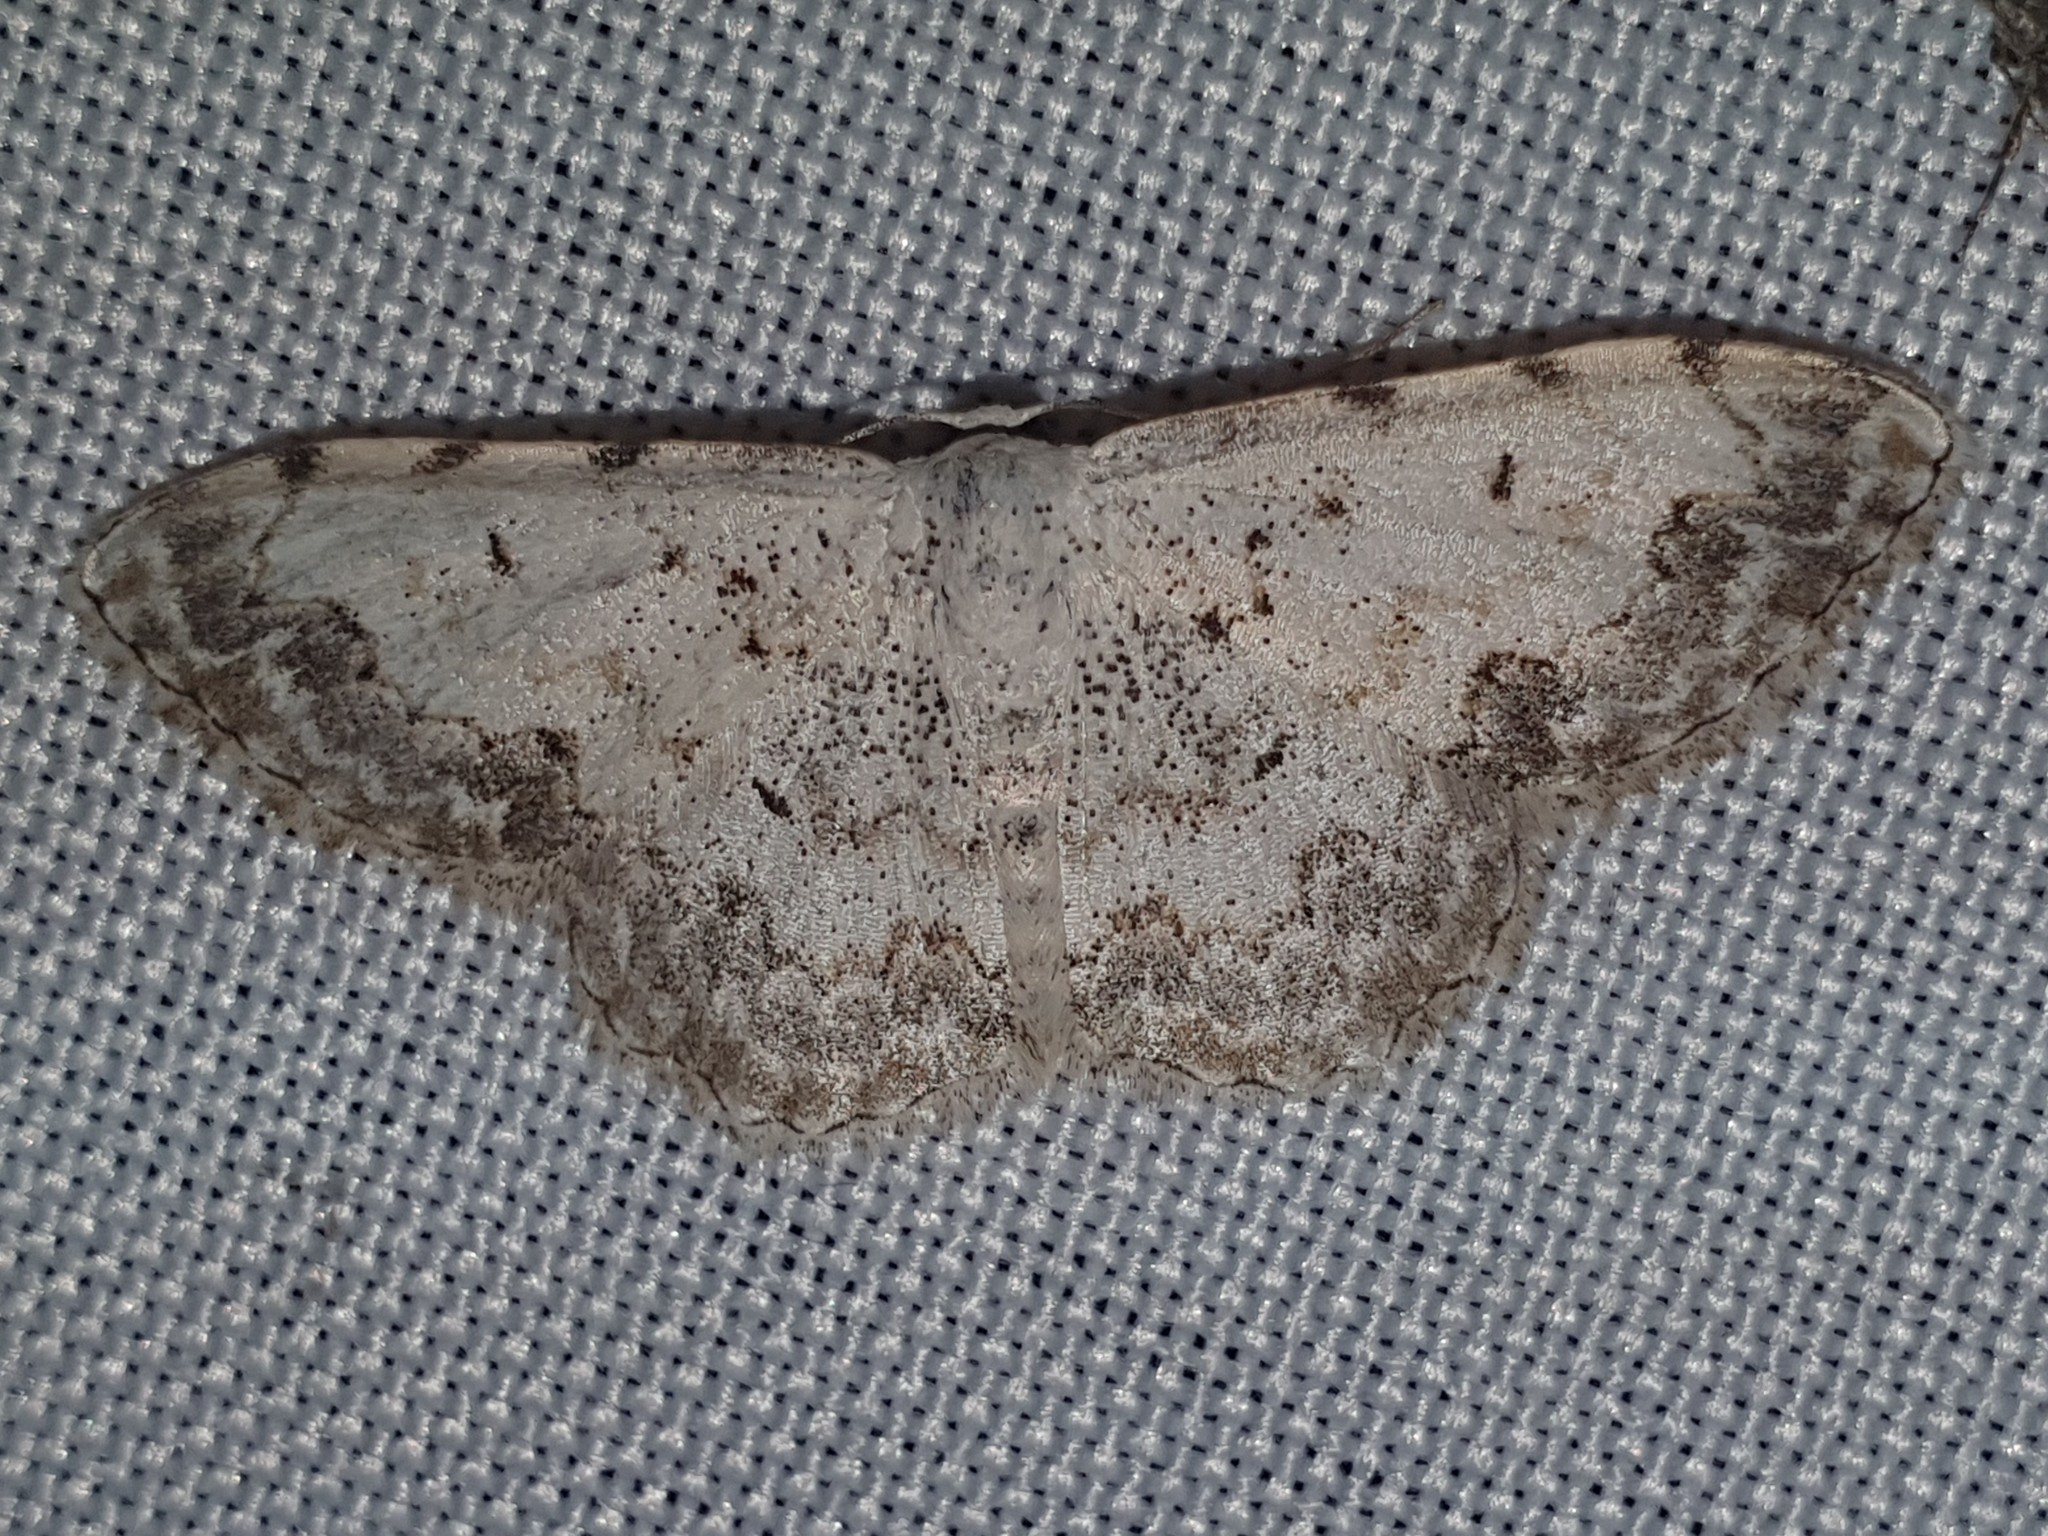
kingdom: Animalia
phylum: Arthropoda
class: Insecta
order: Lepidoptera
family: Geometridae
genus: Scopula
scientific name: Scopula submutata
